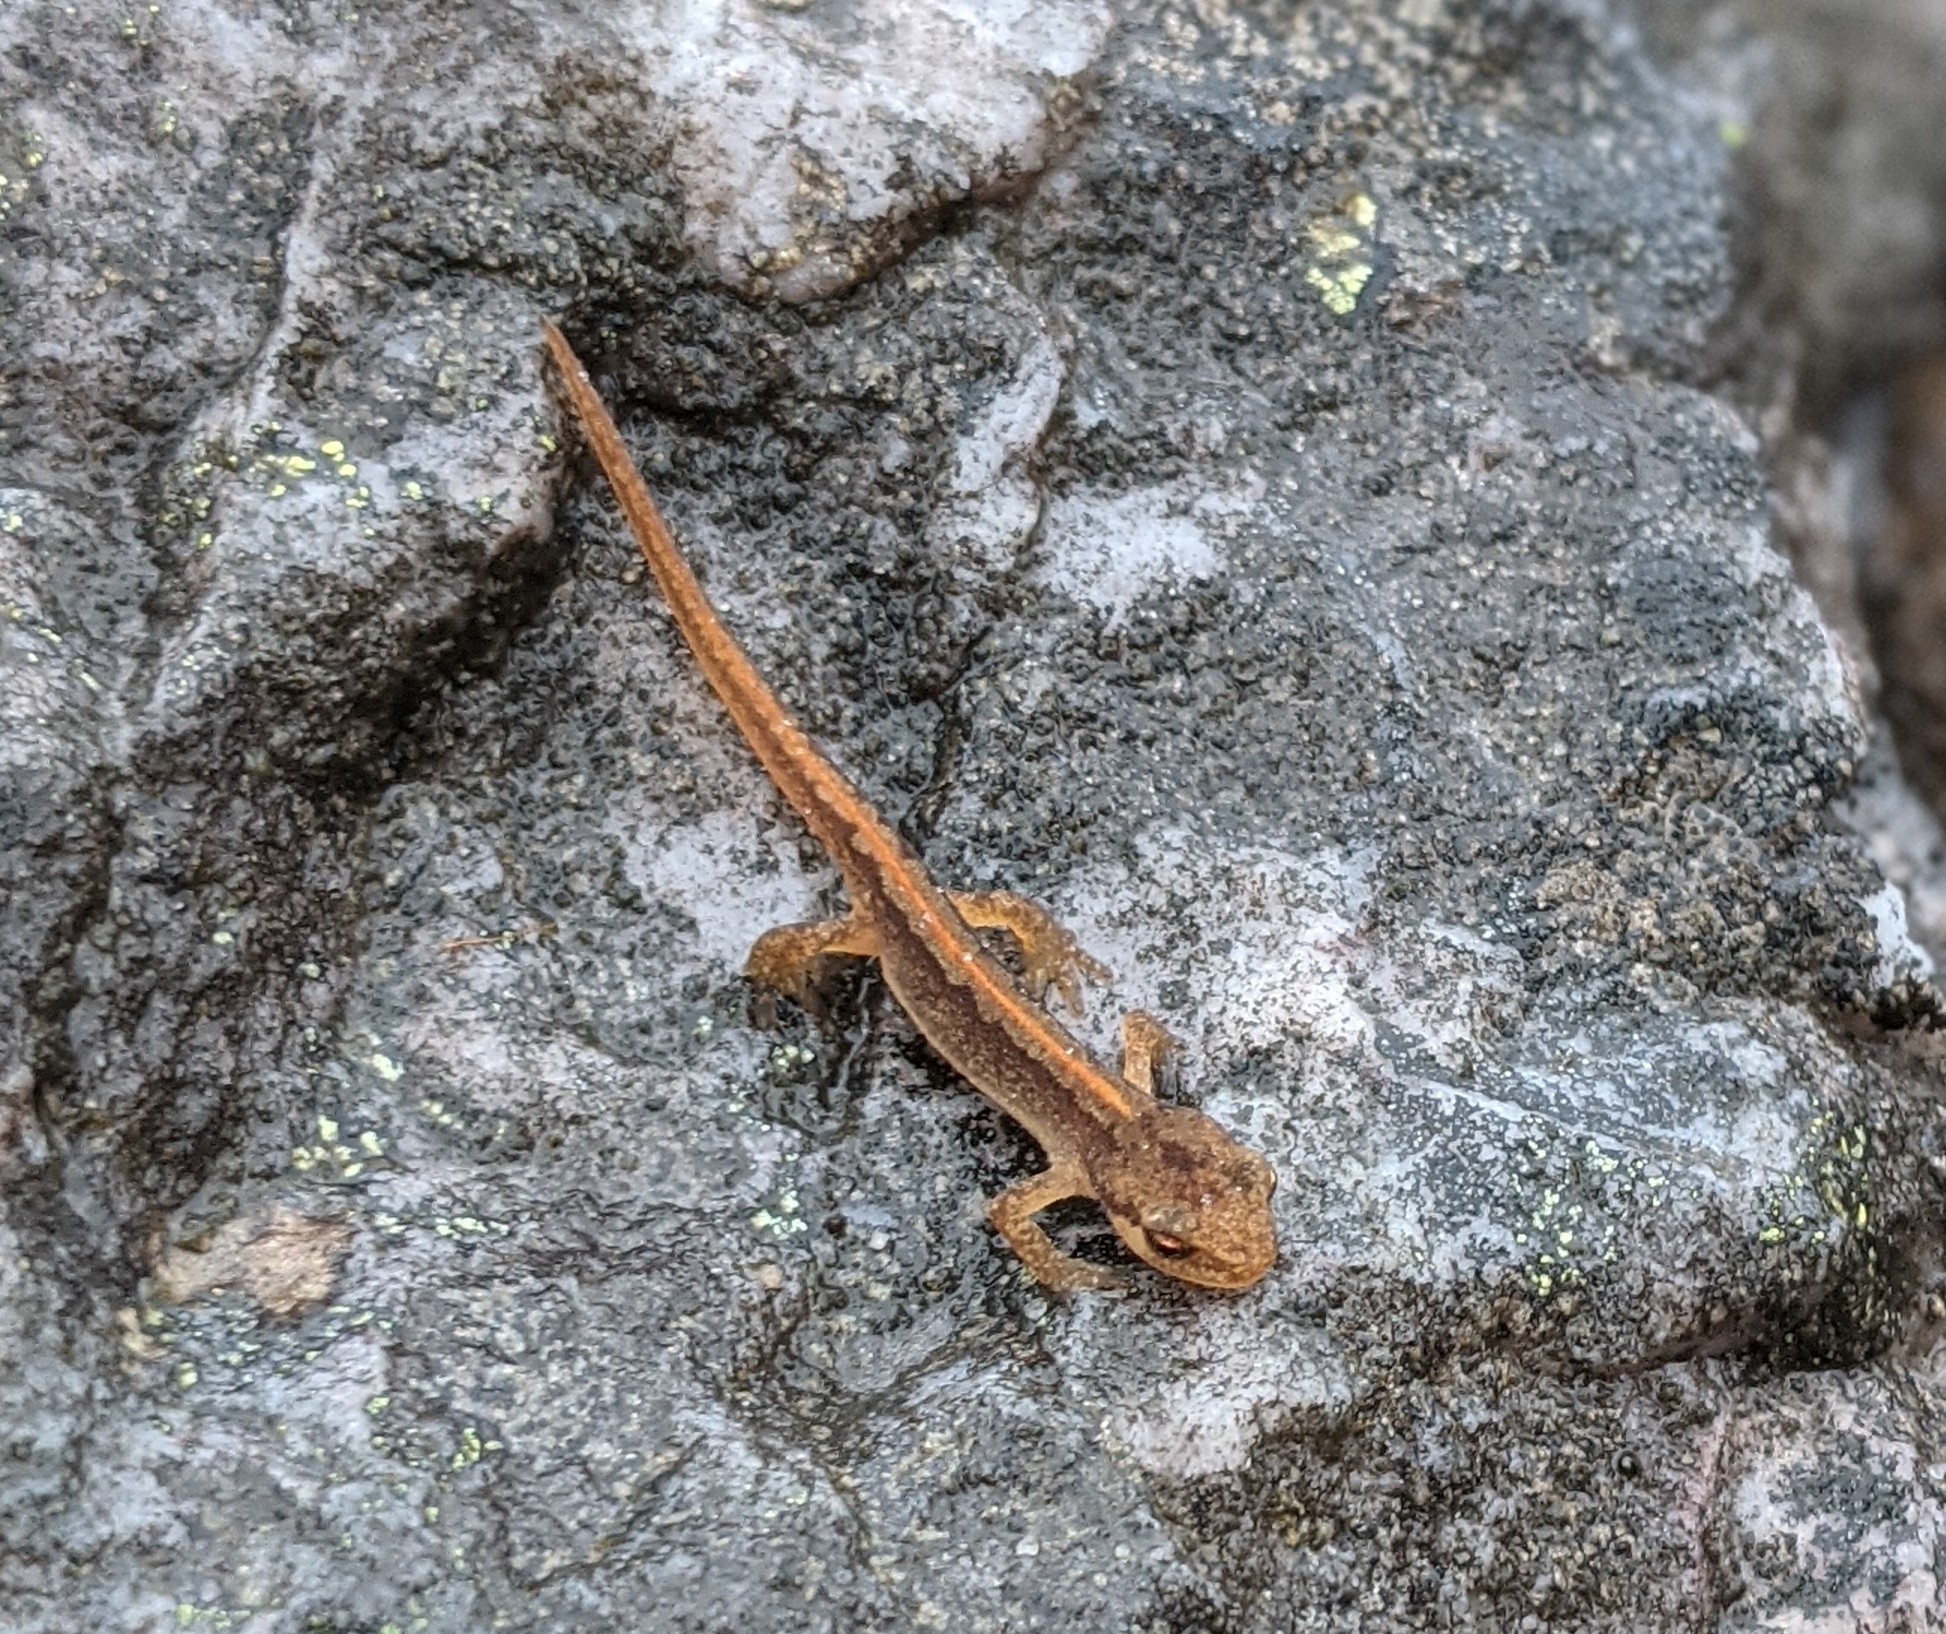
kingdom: Animalia
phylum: Chordata
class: Amphibia
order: Caudata
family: Salamandridae
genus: Lissotriton
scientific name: Lissotriton helveticus
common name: Palmate newt
